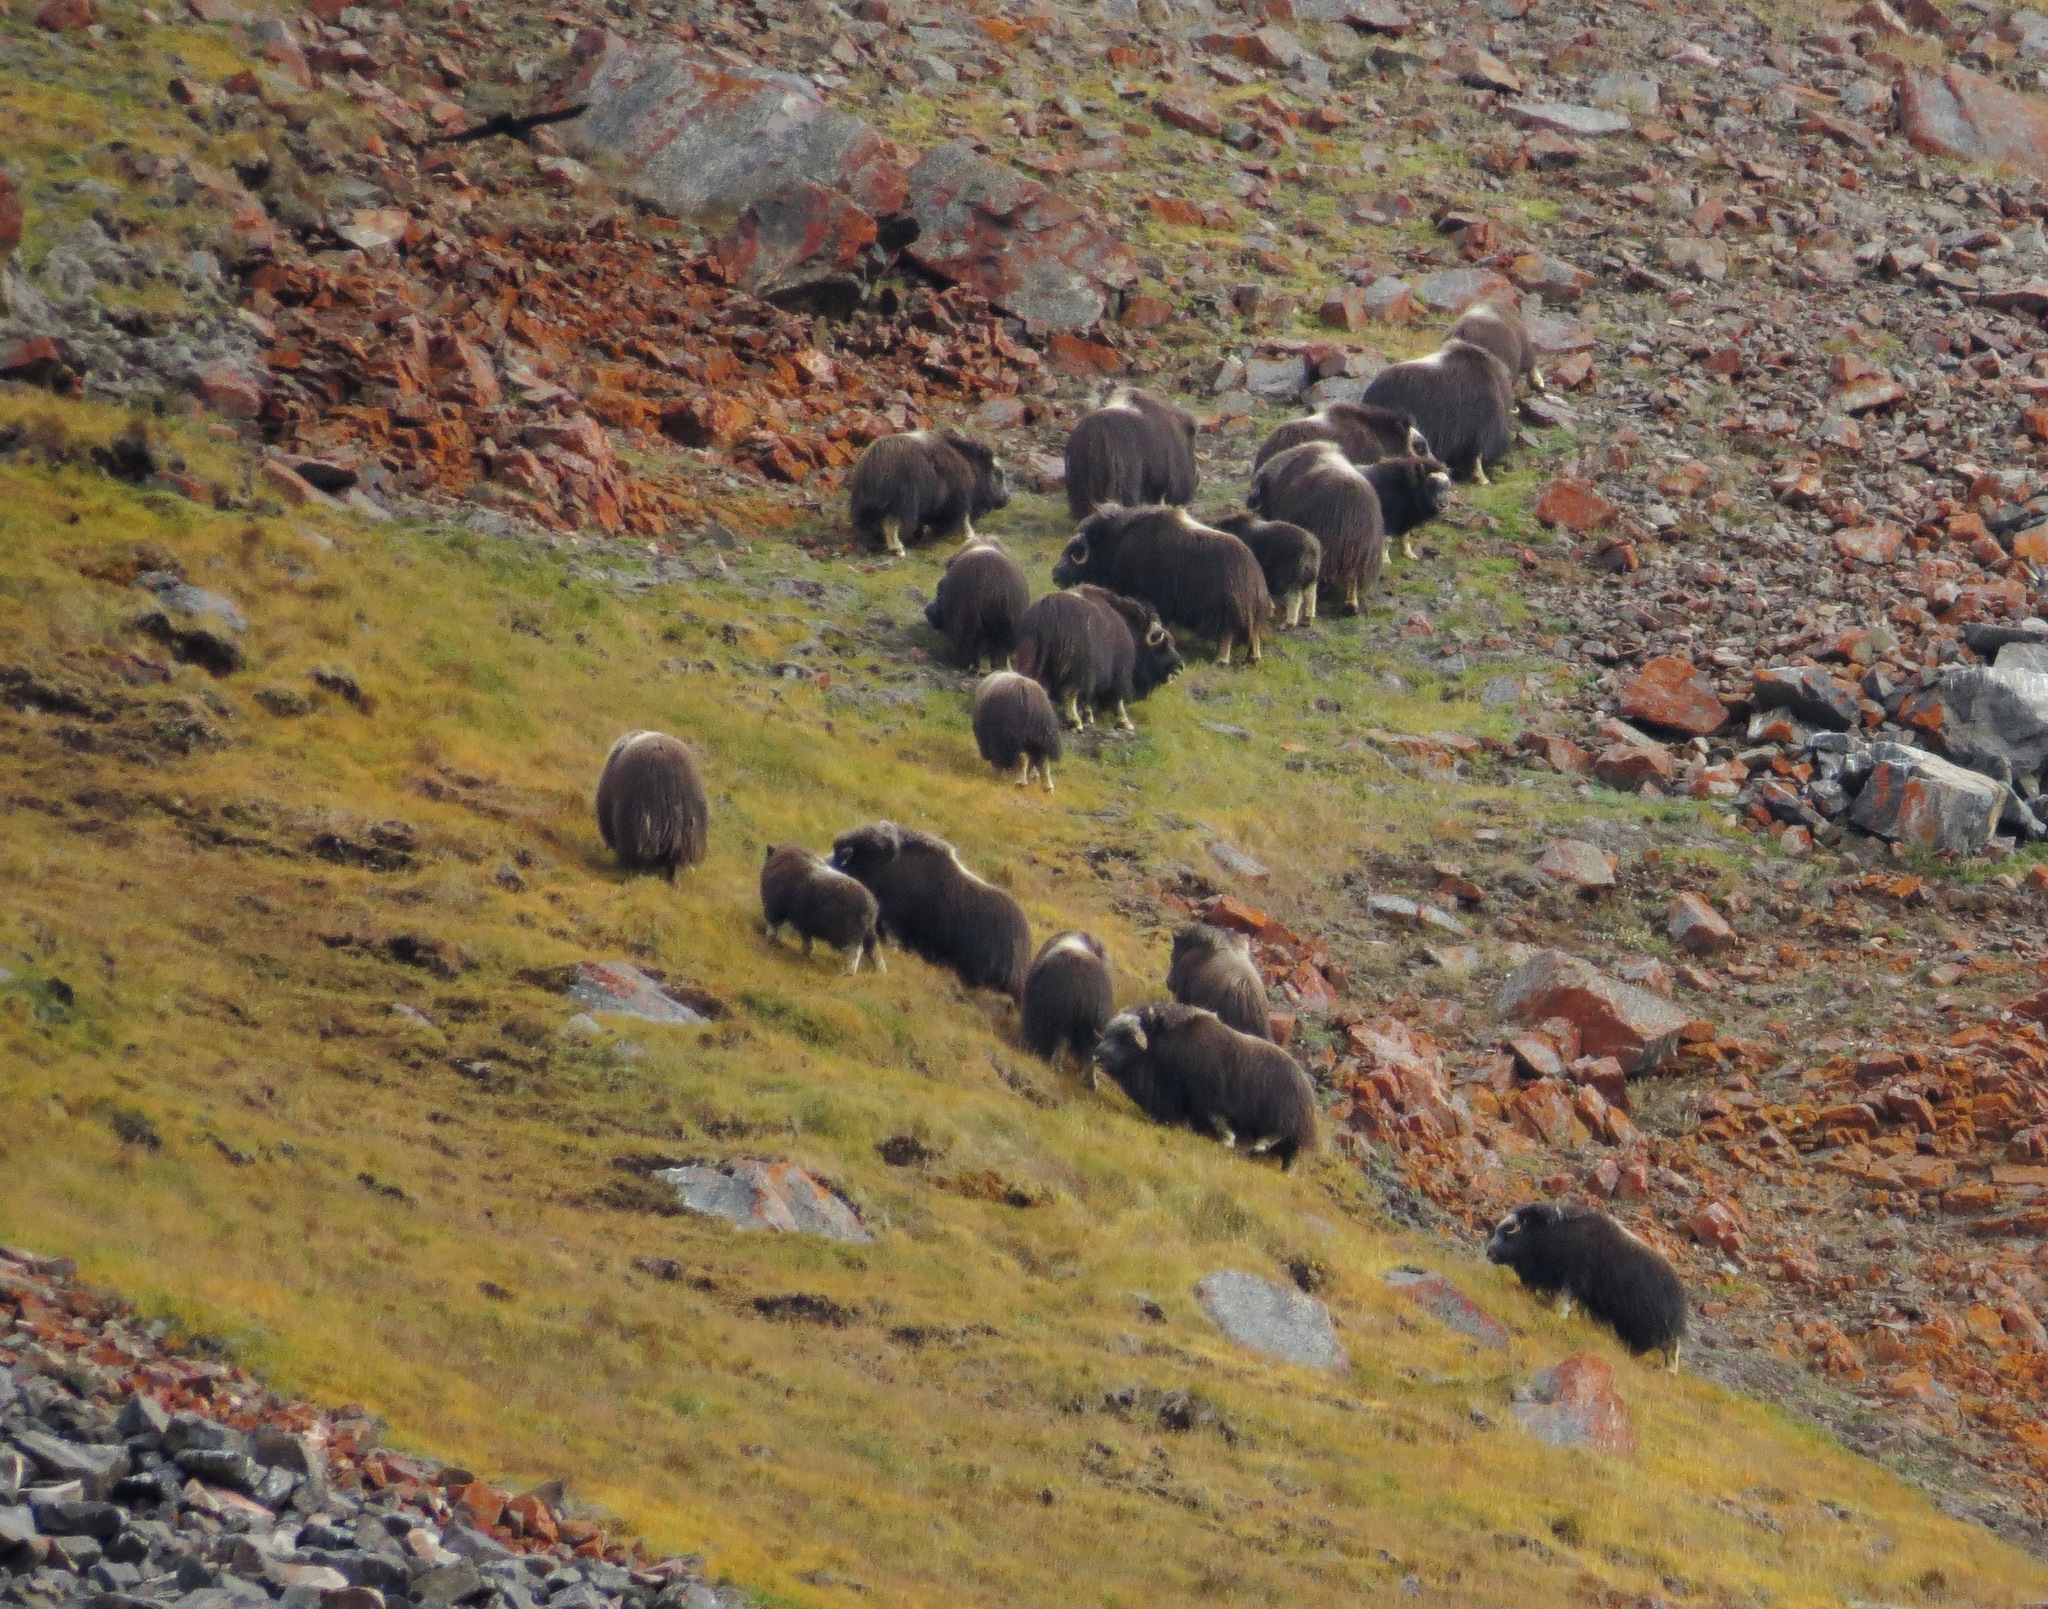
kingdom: Animalia
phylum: Chordata
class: Mammalia
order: Artiodactyla
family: Bovidae
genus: Ovibos
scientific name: Ovibos moschatus
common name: Muskox
